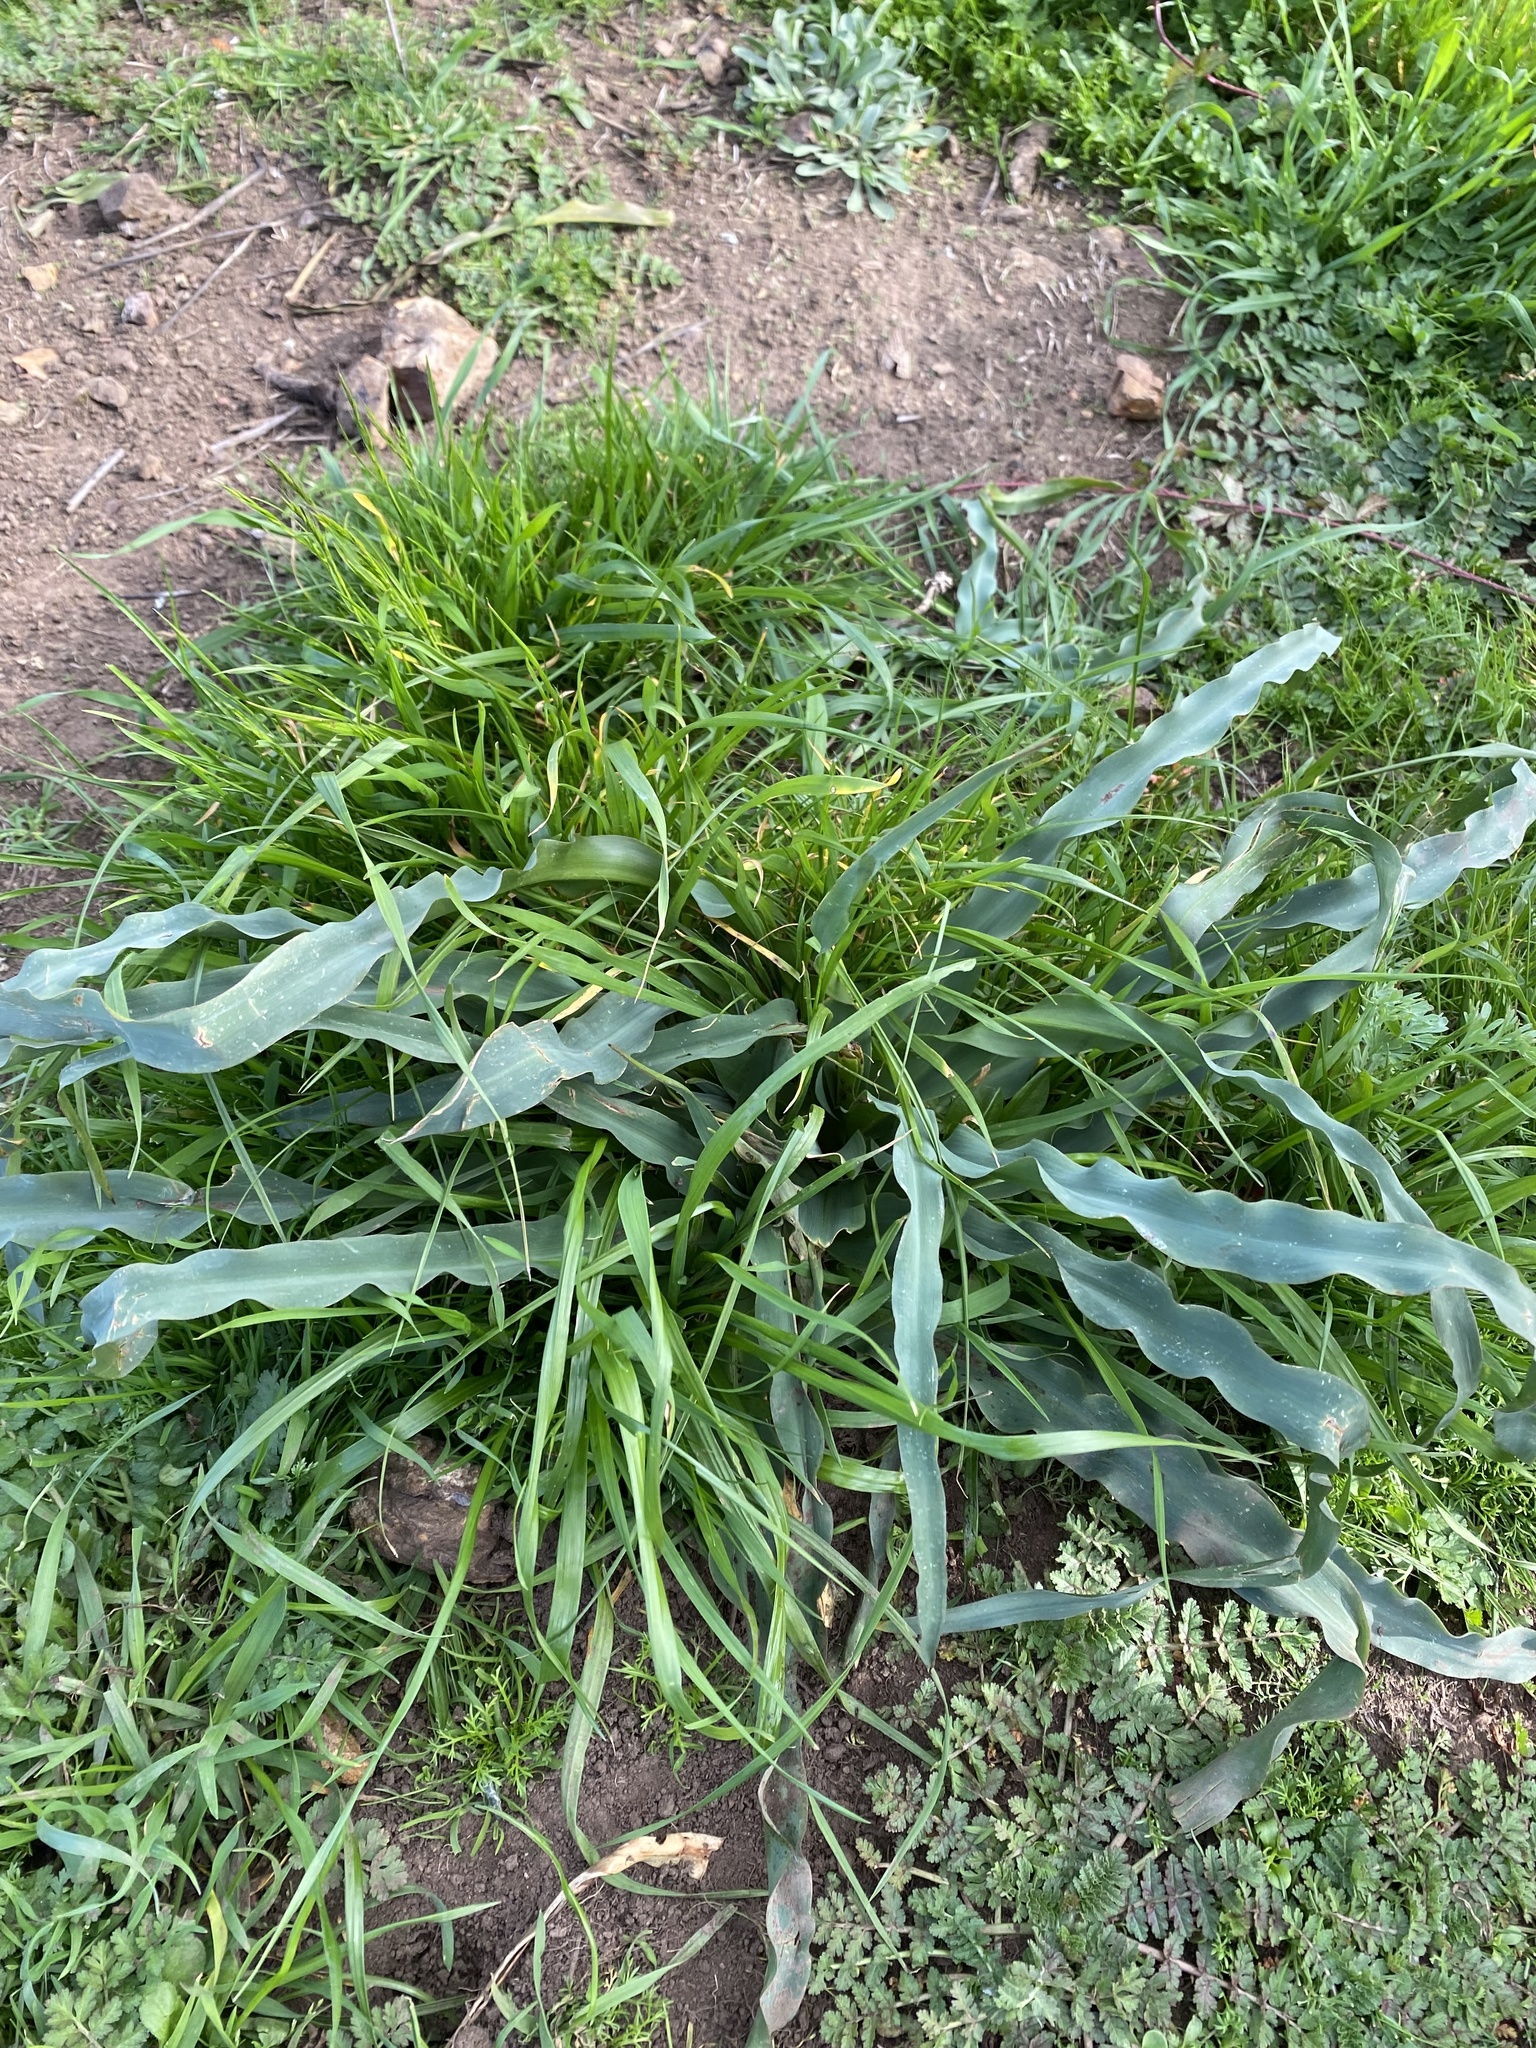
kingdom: Plantae
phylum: Tracheophyta
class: Liliopsida
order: Asparagales
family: Asparagaceae
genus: Chlorogalum
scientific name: Chlorogalum pomeridianum
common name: Amole
